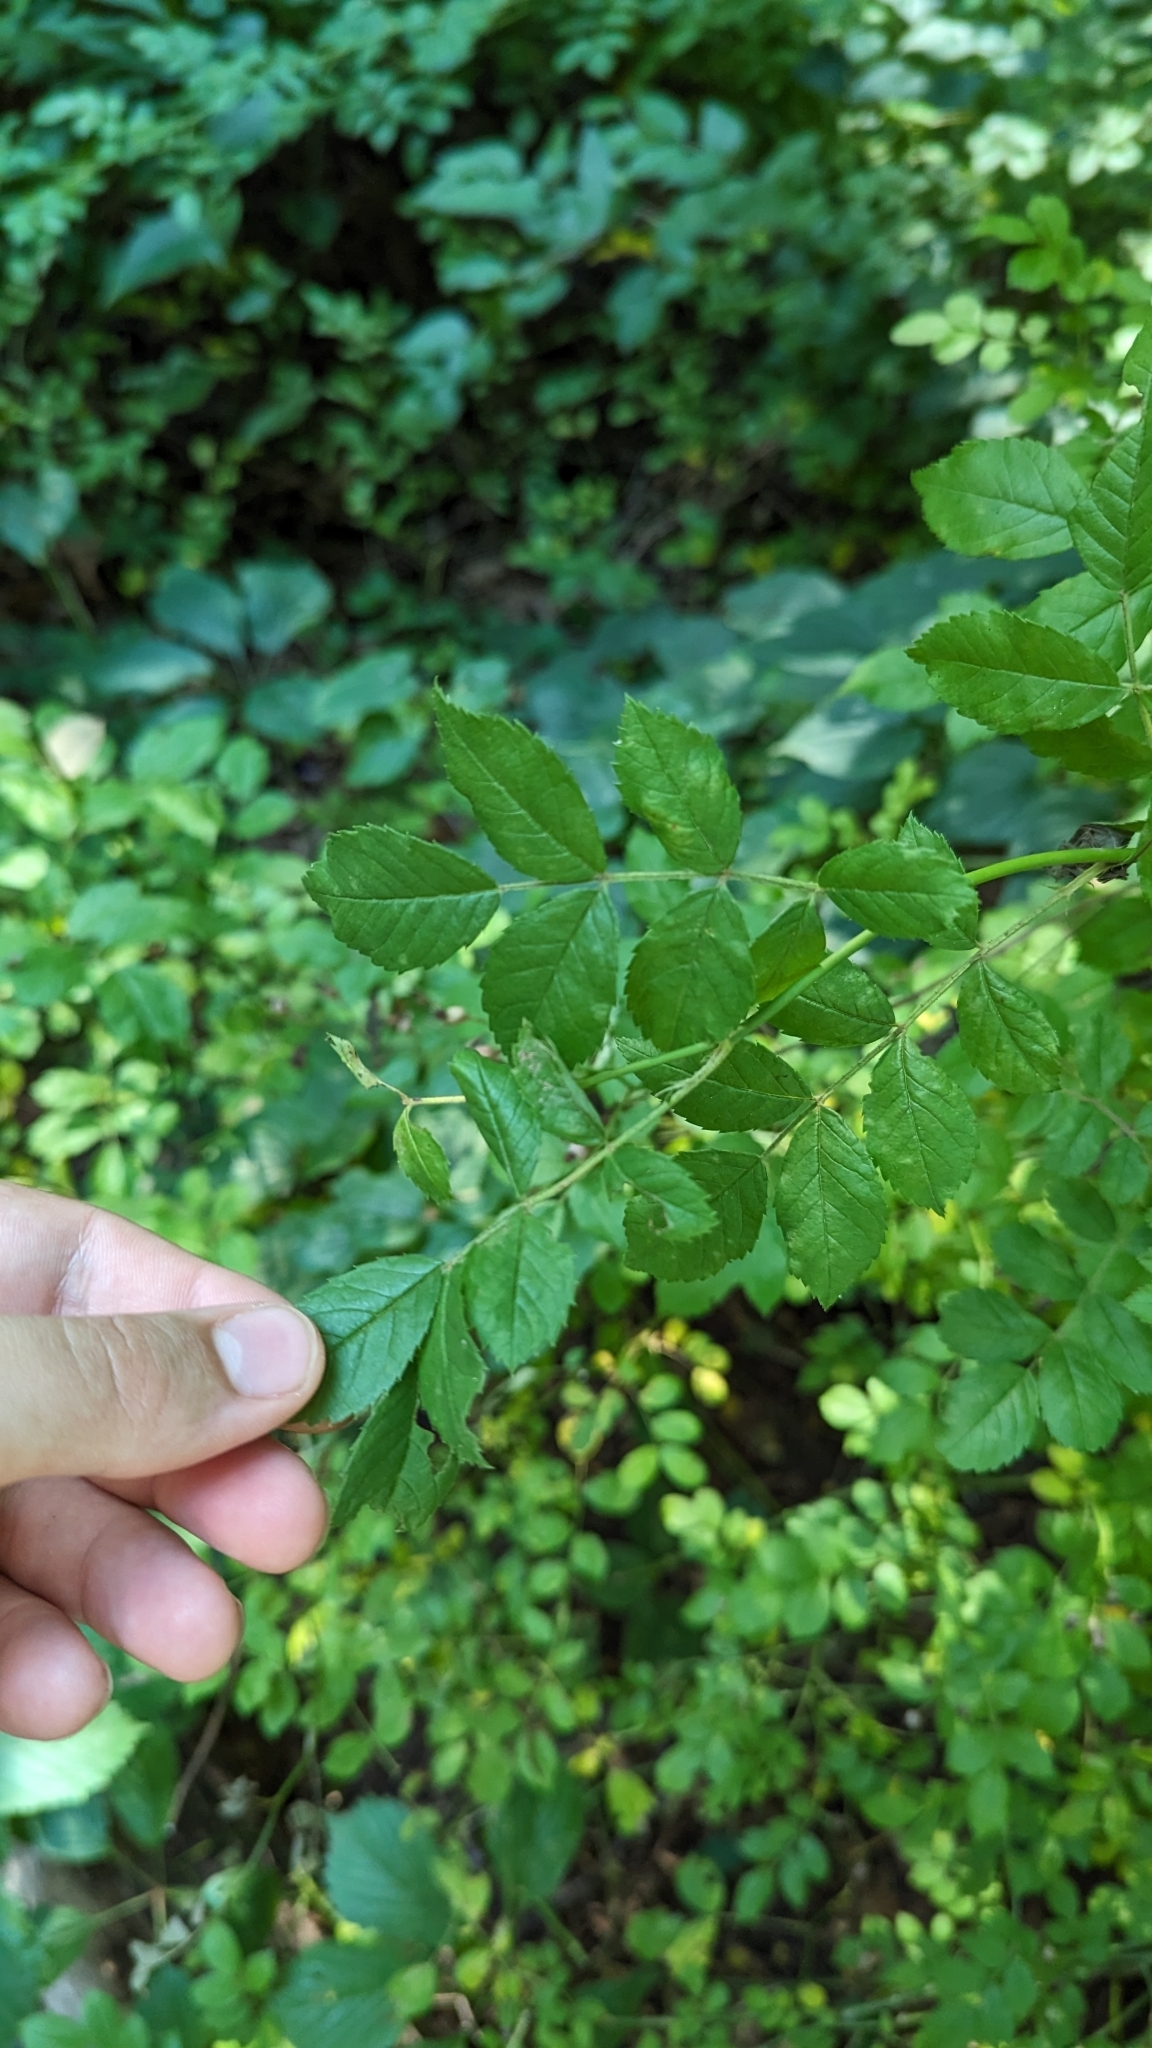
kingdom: Plantae
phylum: Tracheophyta
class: Magnoliopsida
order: Rosales
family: Rosaceae
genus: Rosa
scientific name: Rosa multiflora
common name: Multiflora rose
